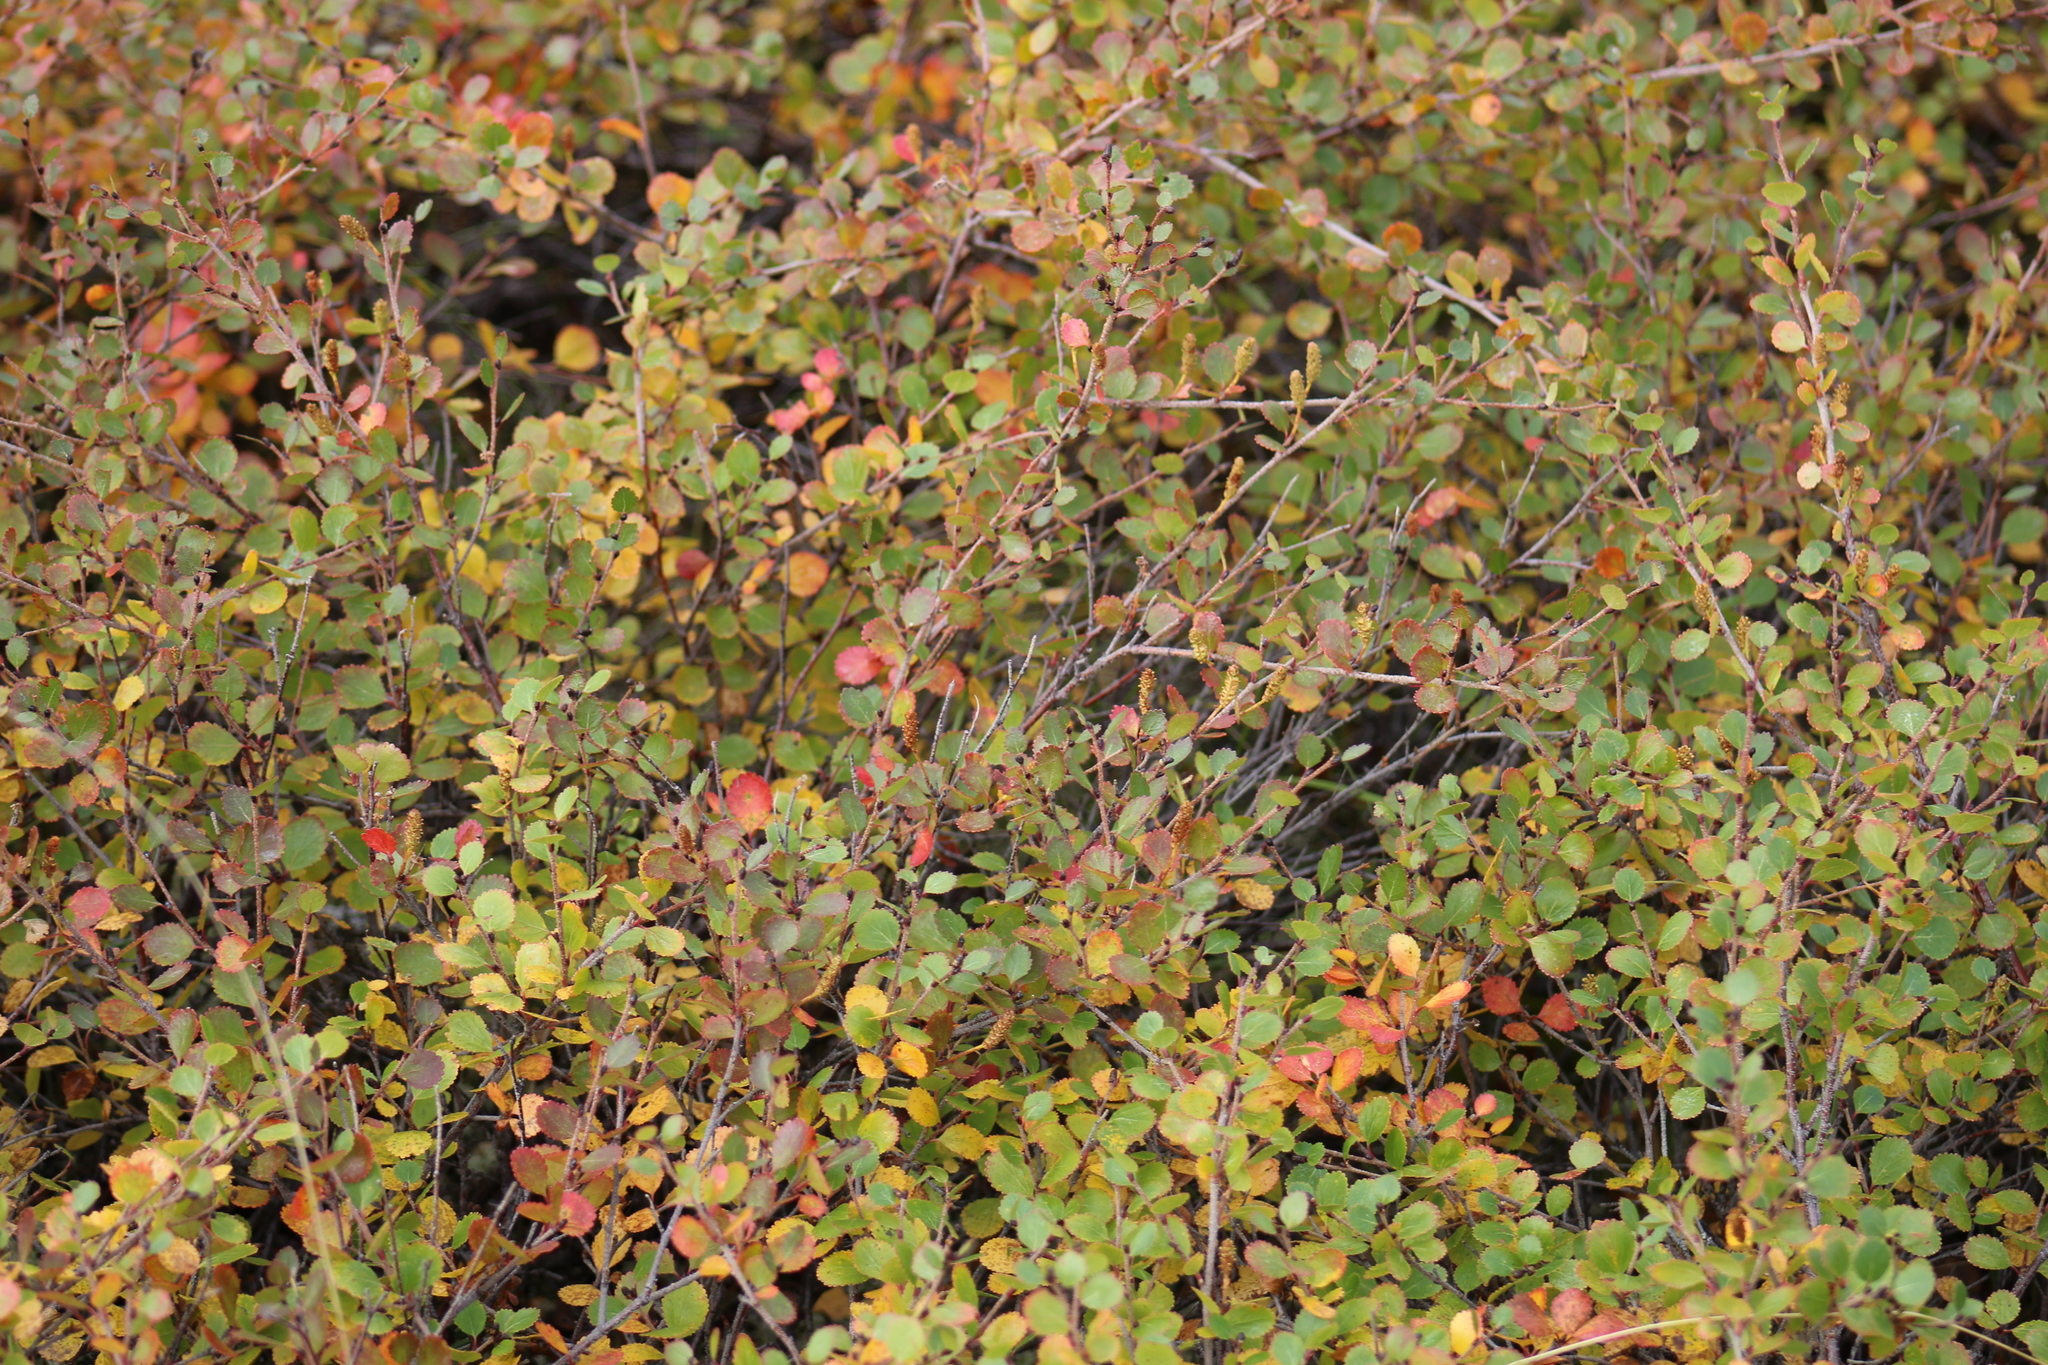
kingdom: Plantae
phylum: Tracheophyta
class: Magnoliopsida
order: Fagales
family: Betulaceae
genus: Betula
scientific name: Betula glandulosa
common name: Dwarf birch
